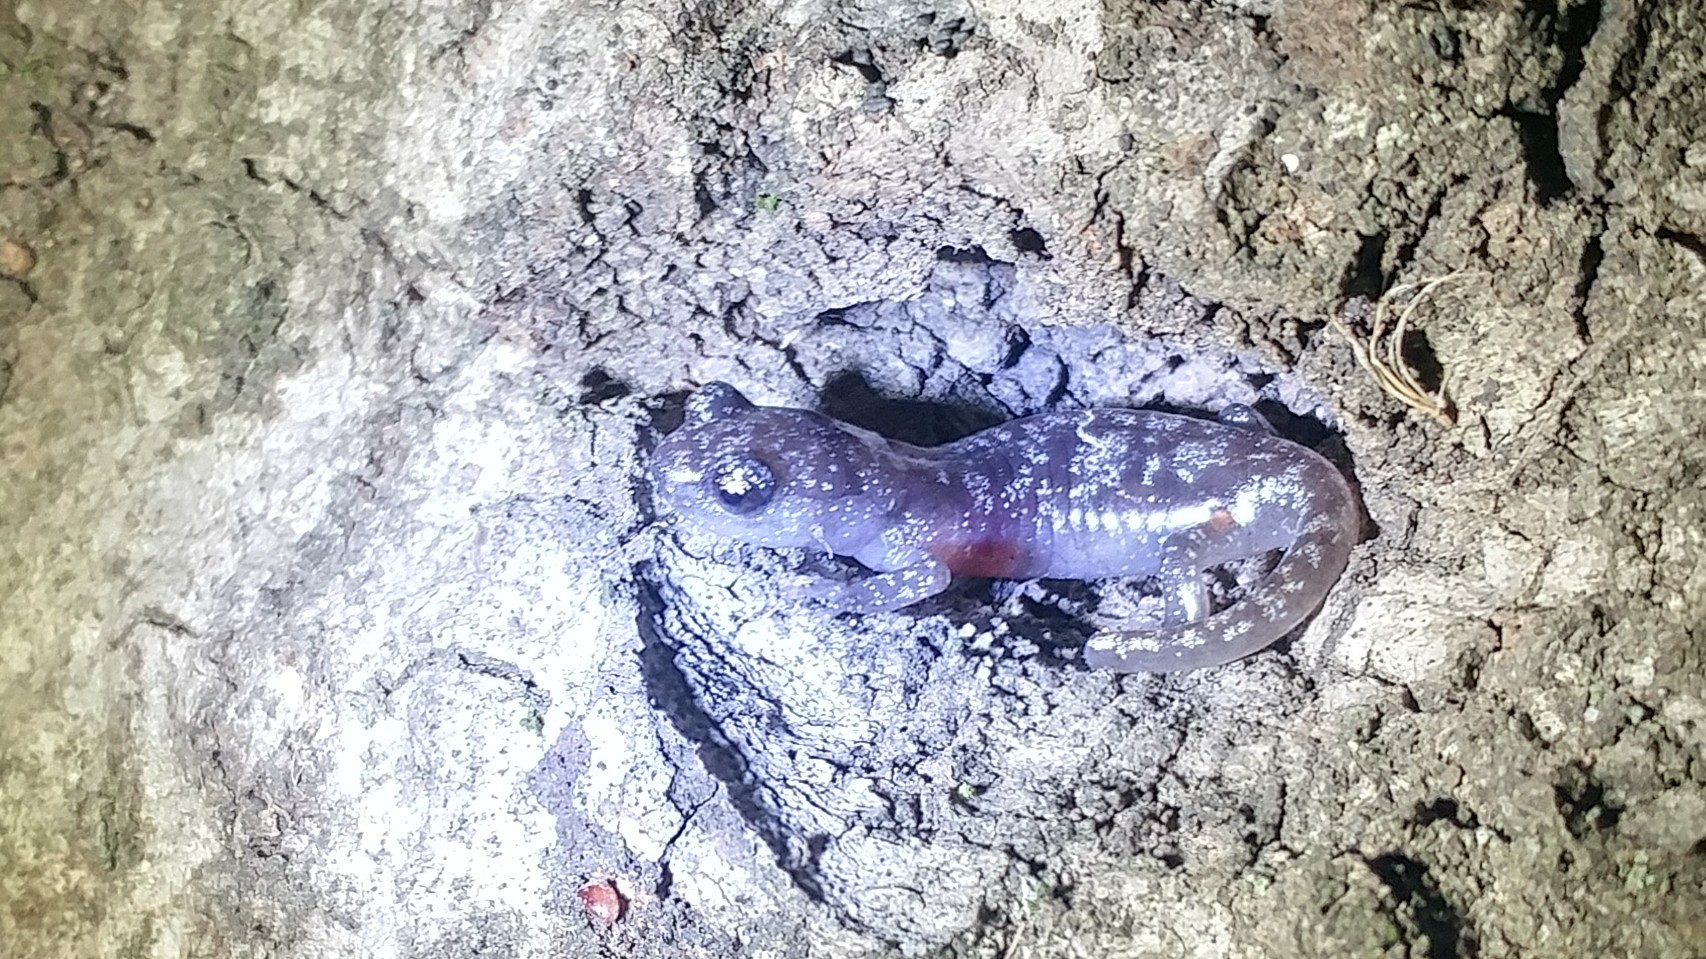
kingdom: Animalia
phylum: Chordata
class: Amphibia
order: Caudata
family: Plethodontidae
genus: Aneides
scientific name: Aneides lugubris
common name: Arboreal salamander
